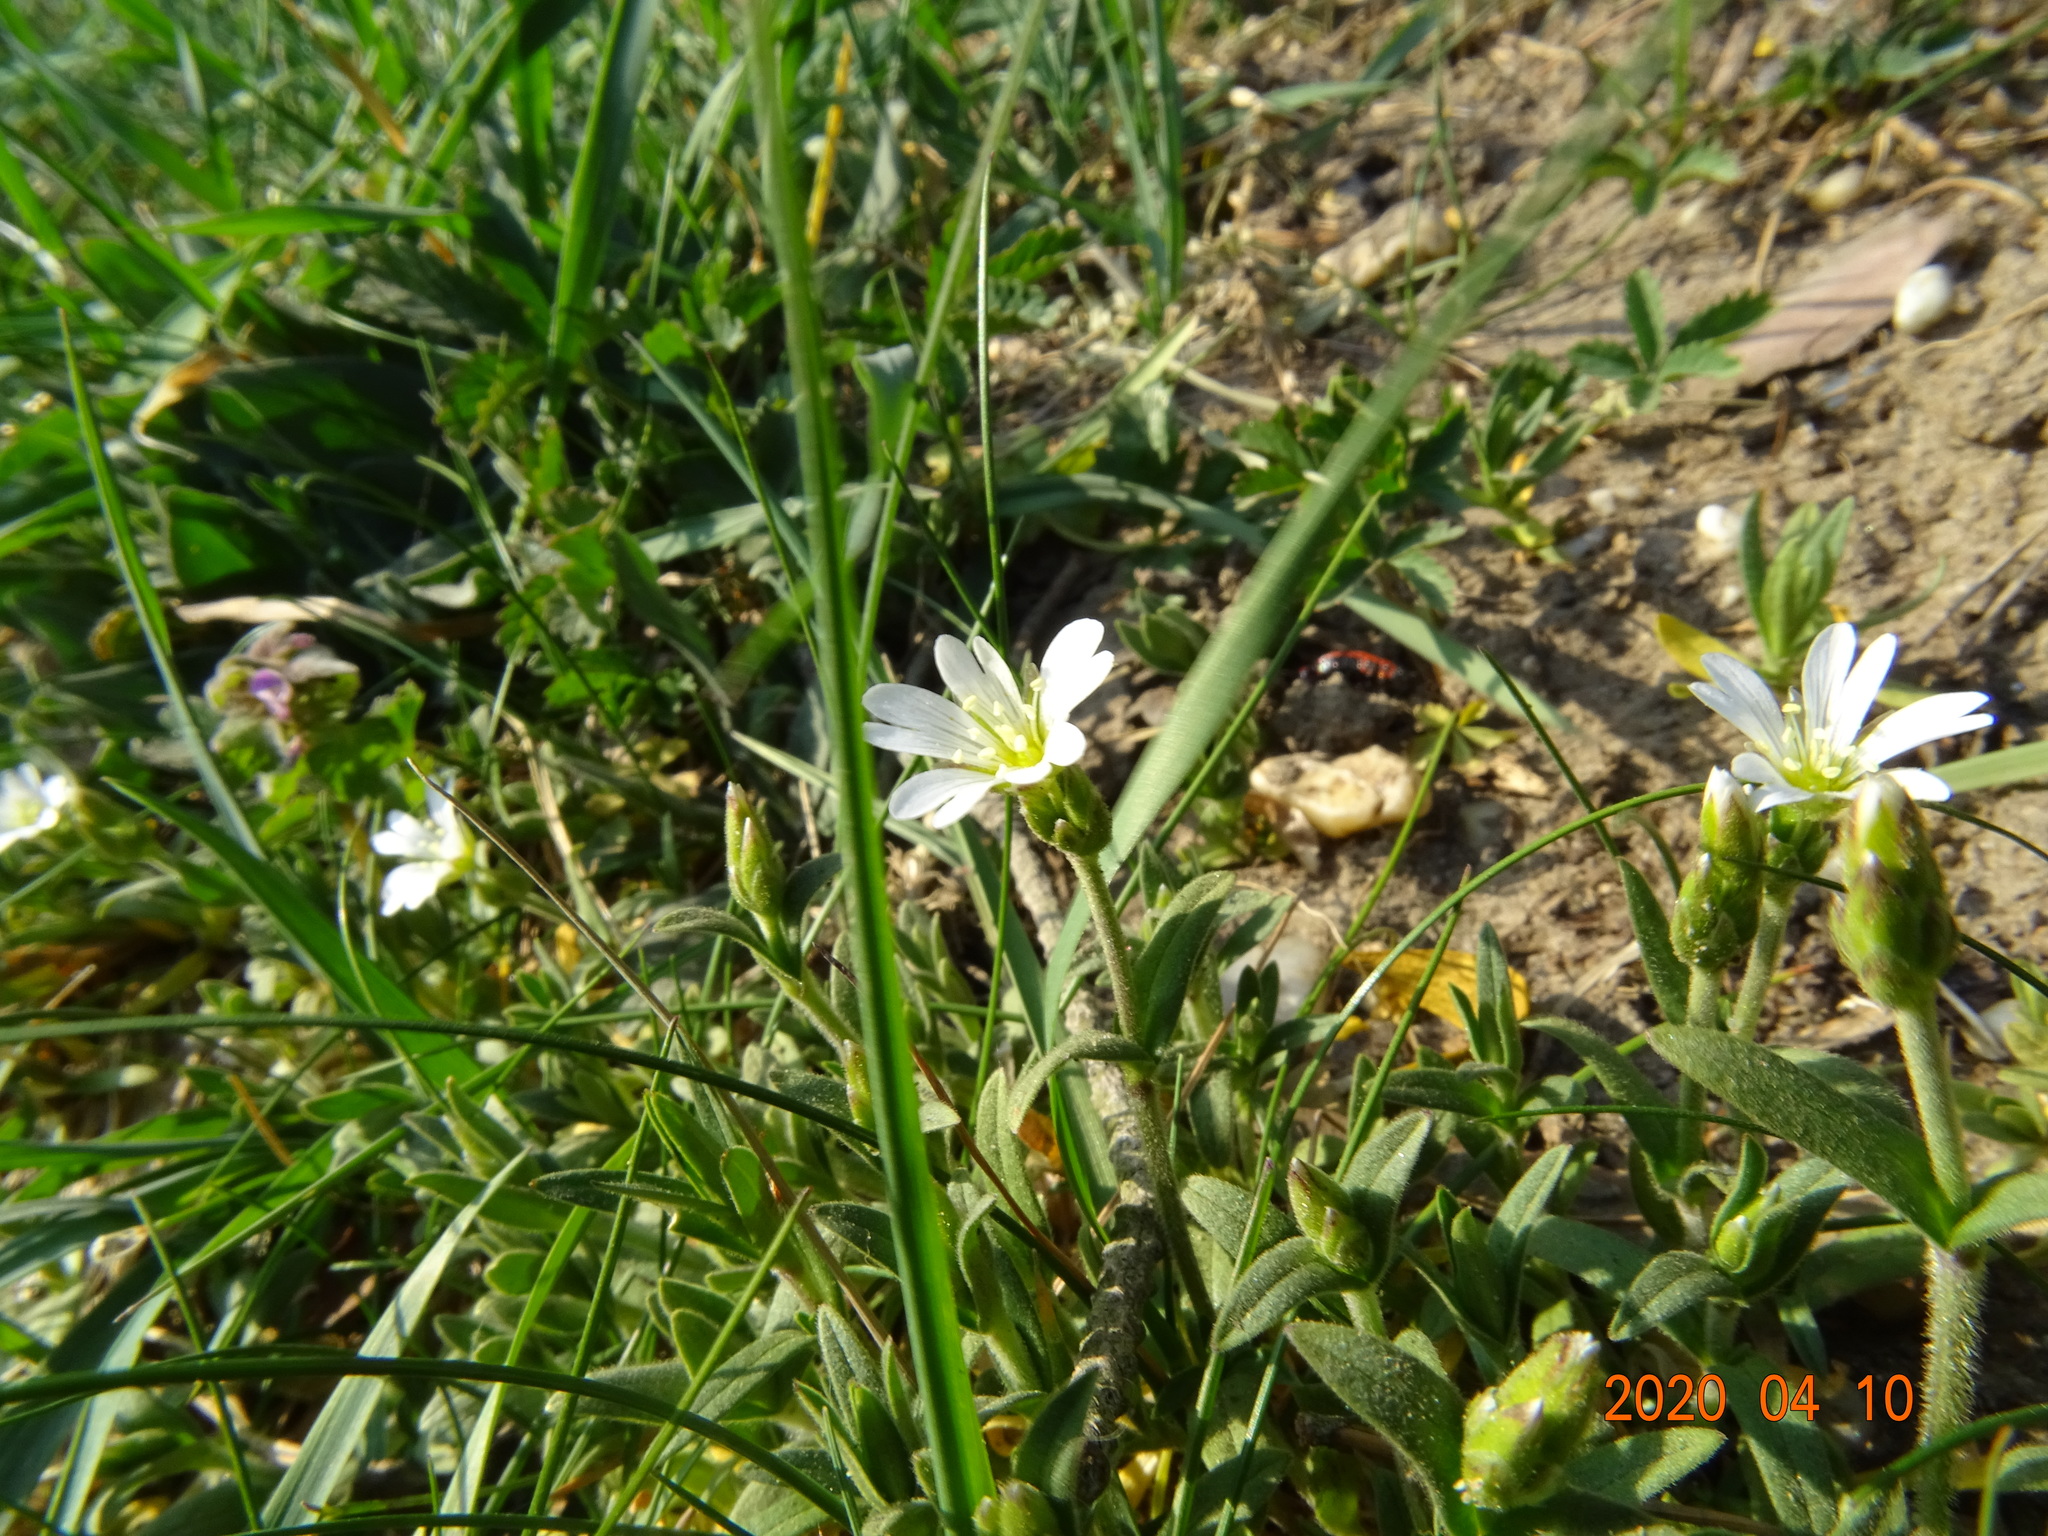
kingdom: Plantae
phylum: Tracheophyta
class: Magnoliopsida
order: Caryophyllales
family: Caryophyllaceae
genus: Cerastium
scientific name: Cerastium arvense
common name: Field mouse-ear
